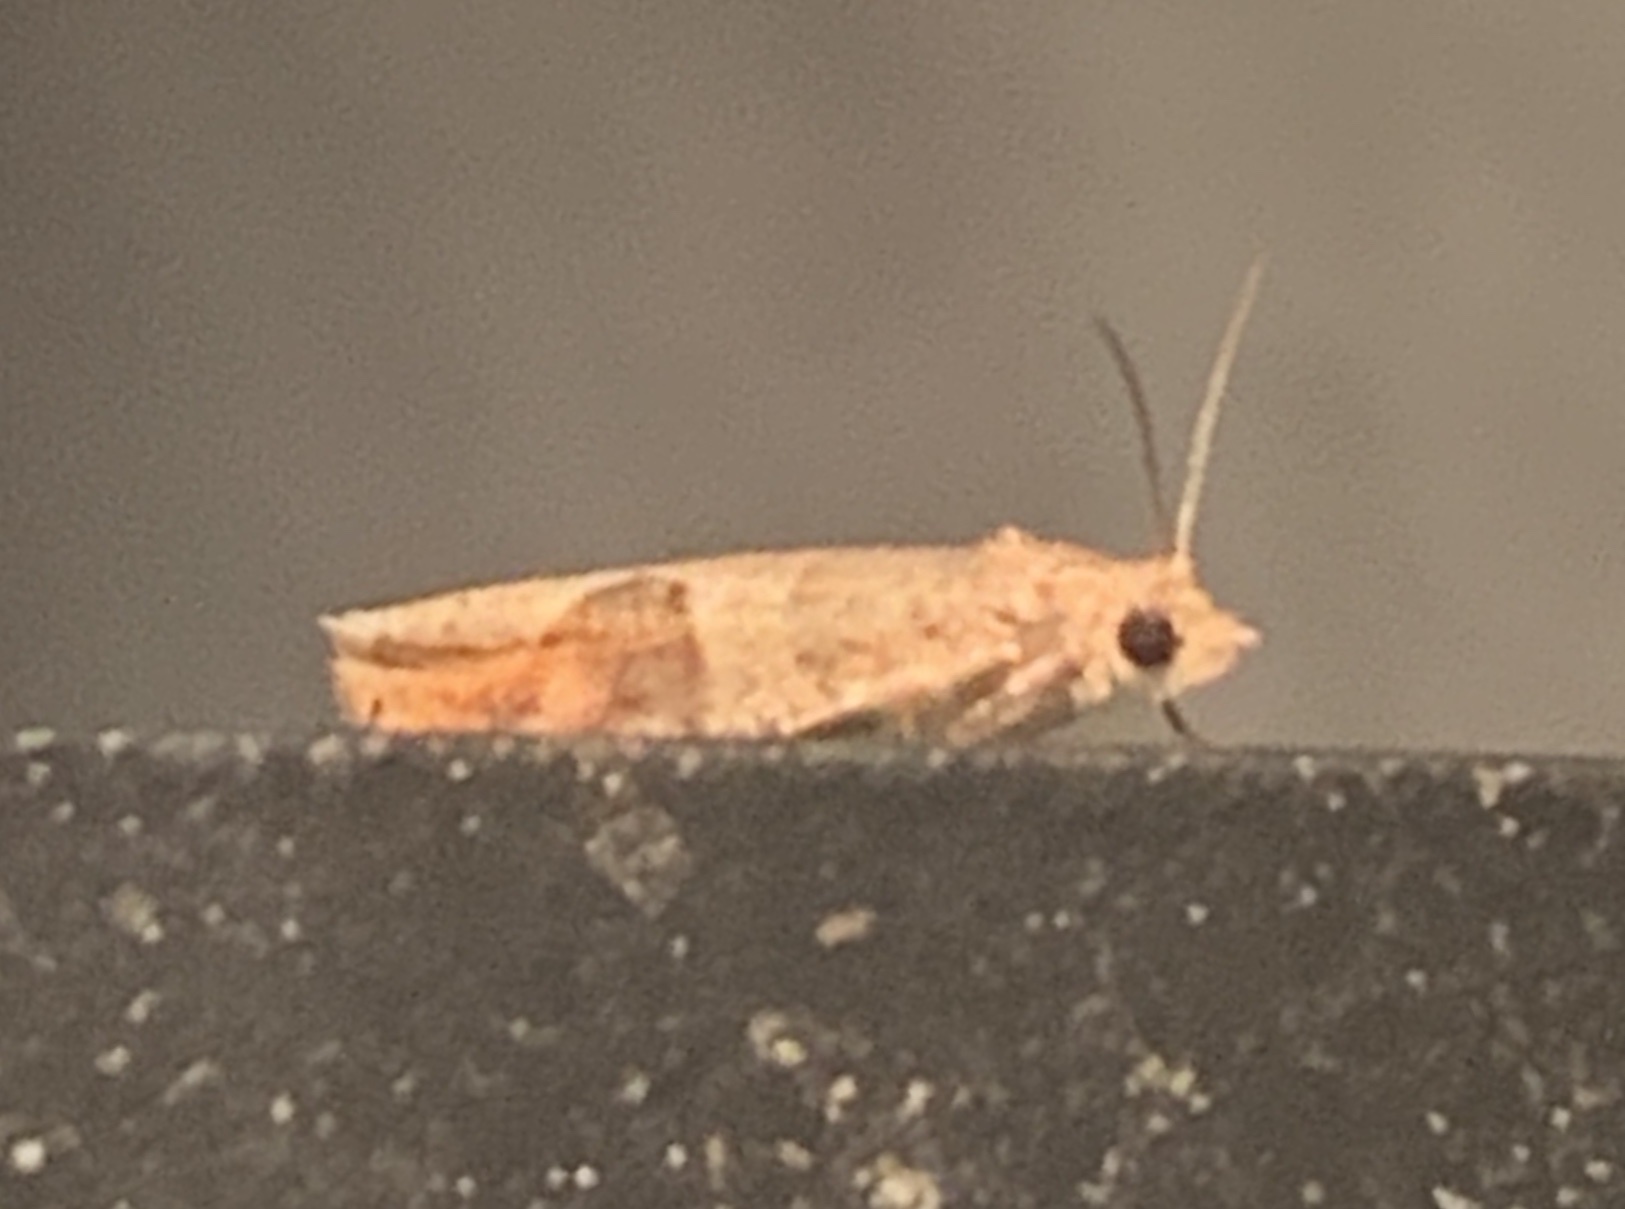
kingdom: Animalia
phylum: Arthropoda
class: Insecta
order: Lepidoptera
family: Tortricidae
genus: Pseudexentera
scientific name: Pseudexentera virginiana
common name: Virginia pseudexentera moth
